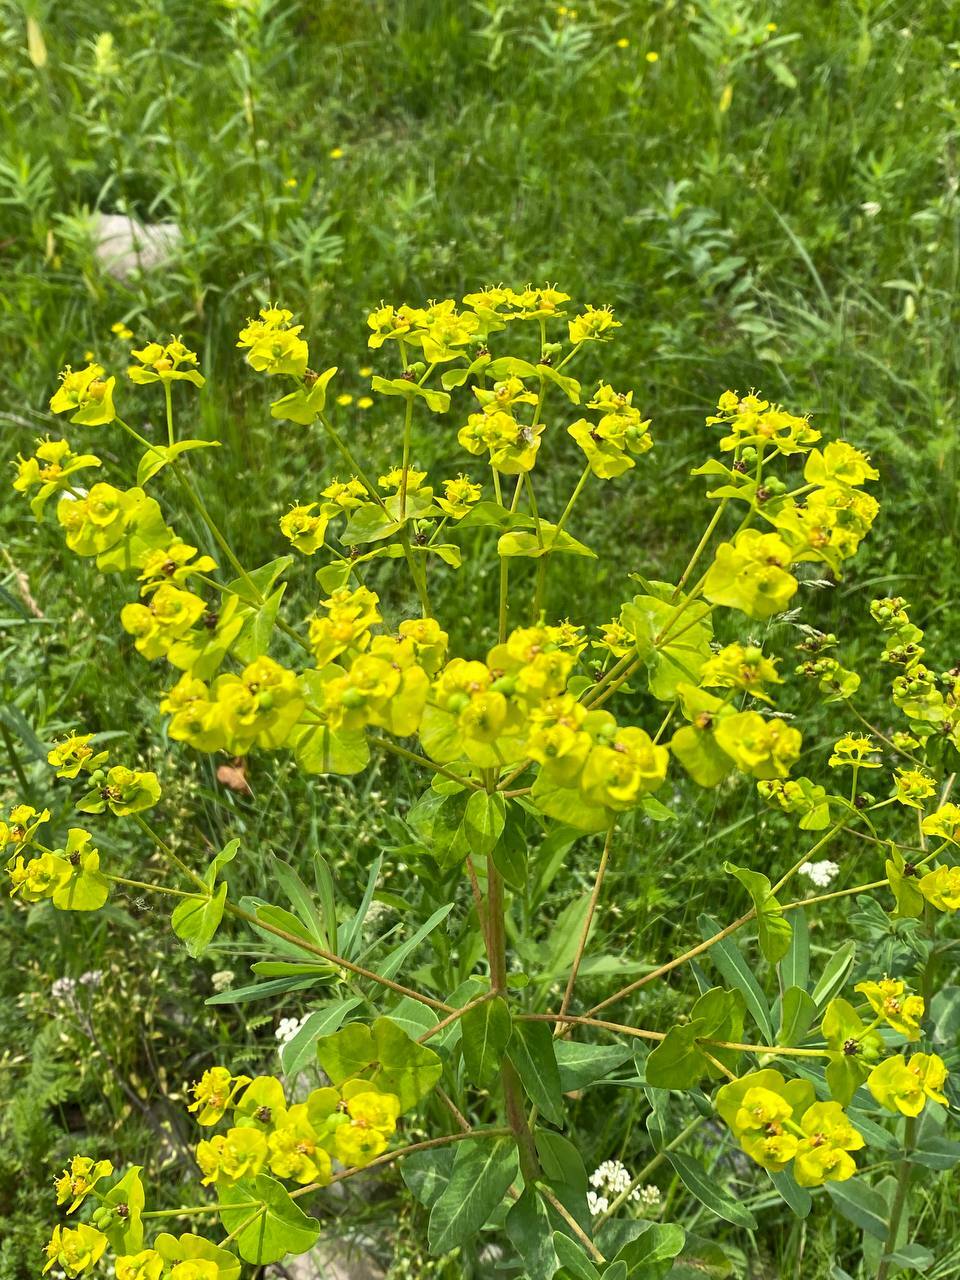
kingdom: Plantae
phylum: Tracheophyta
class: Magnoliopsida
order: Malpighiales
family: Euphorbiaceae
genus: Euphorbia
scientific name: Euphorbia virgata
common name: Leafy spurge
